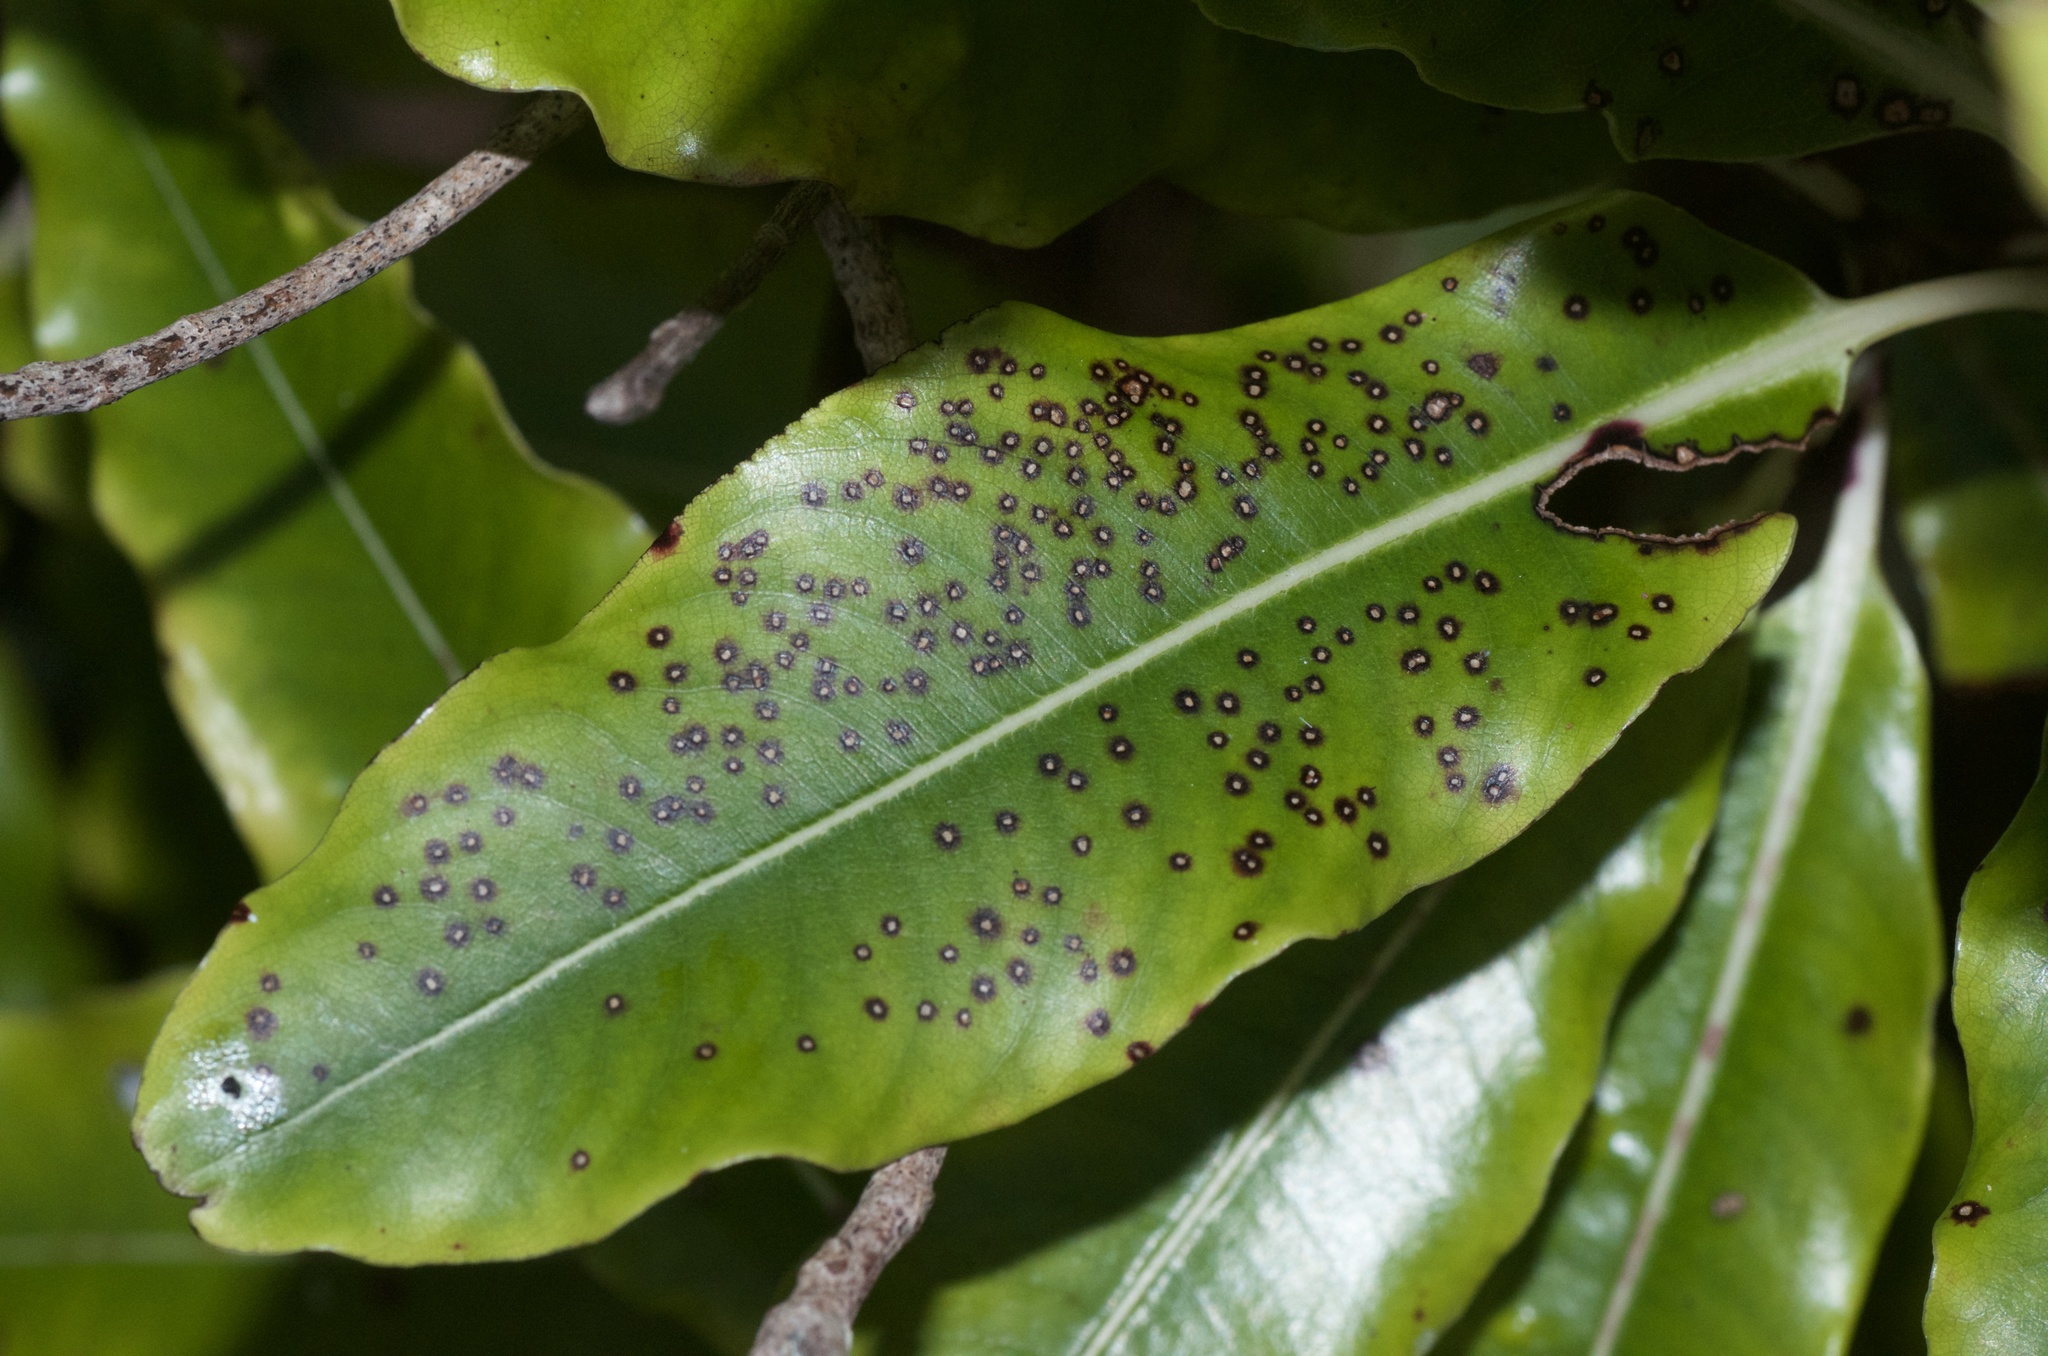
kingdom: Plantae
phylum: Tracheophyta
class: Magnoliopsida
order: Apiales
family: Pittosporaceae
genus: Pittosporum
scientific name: Pittosporum eugenioides
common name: Lemonwood
